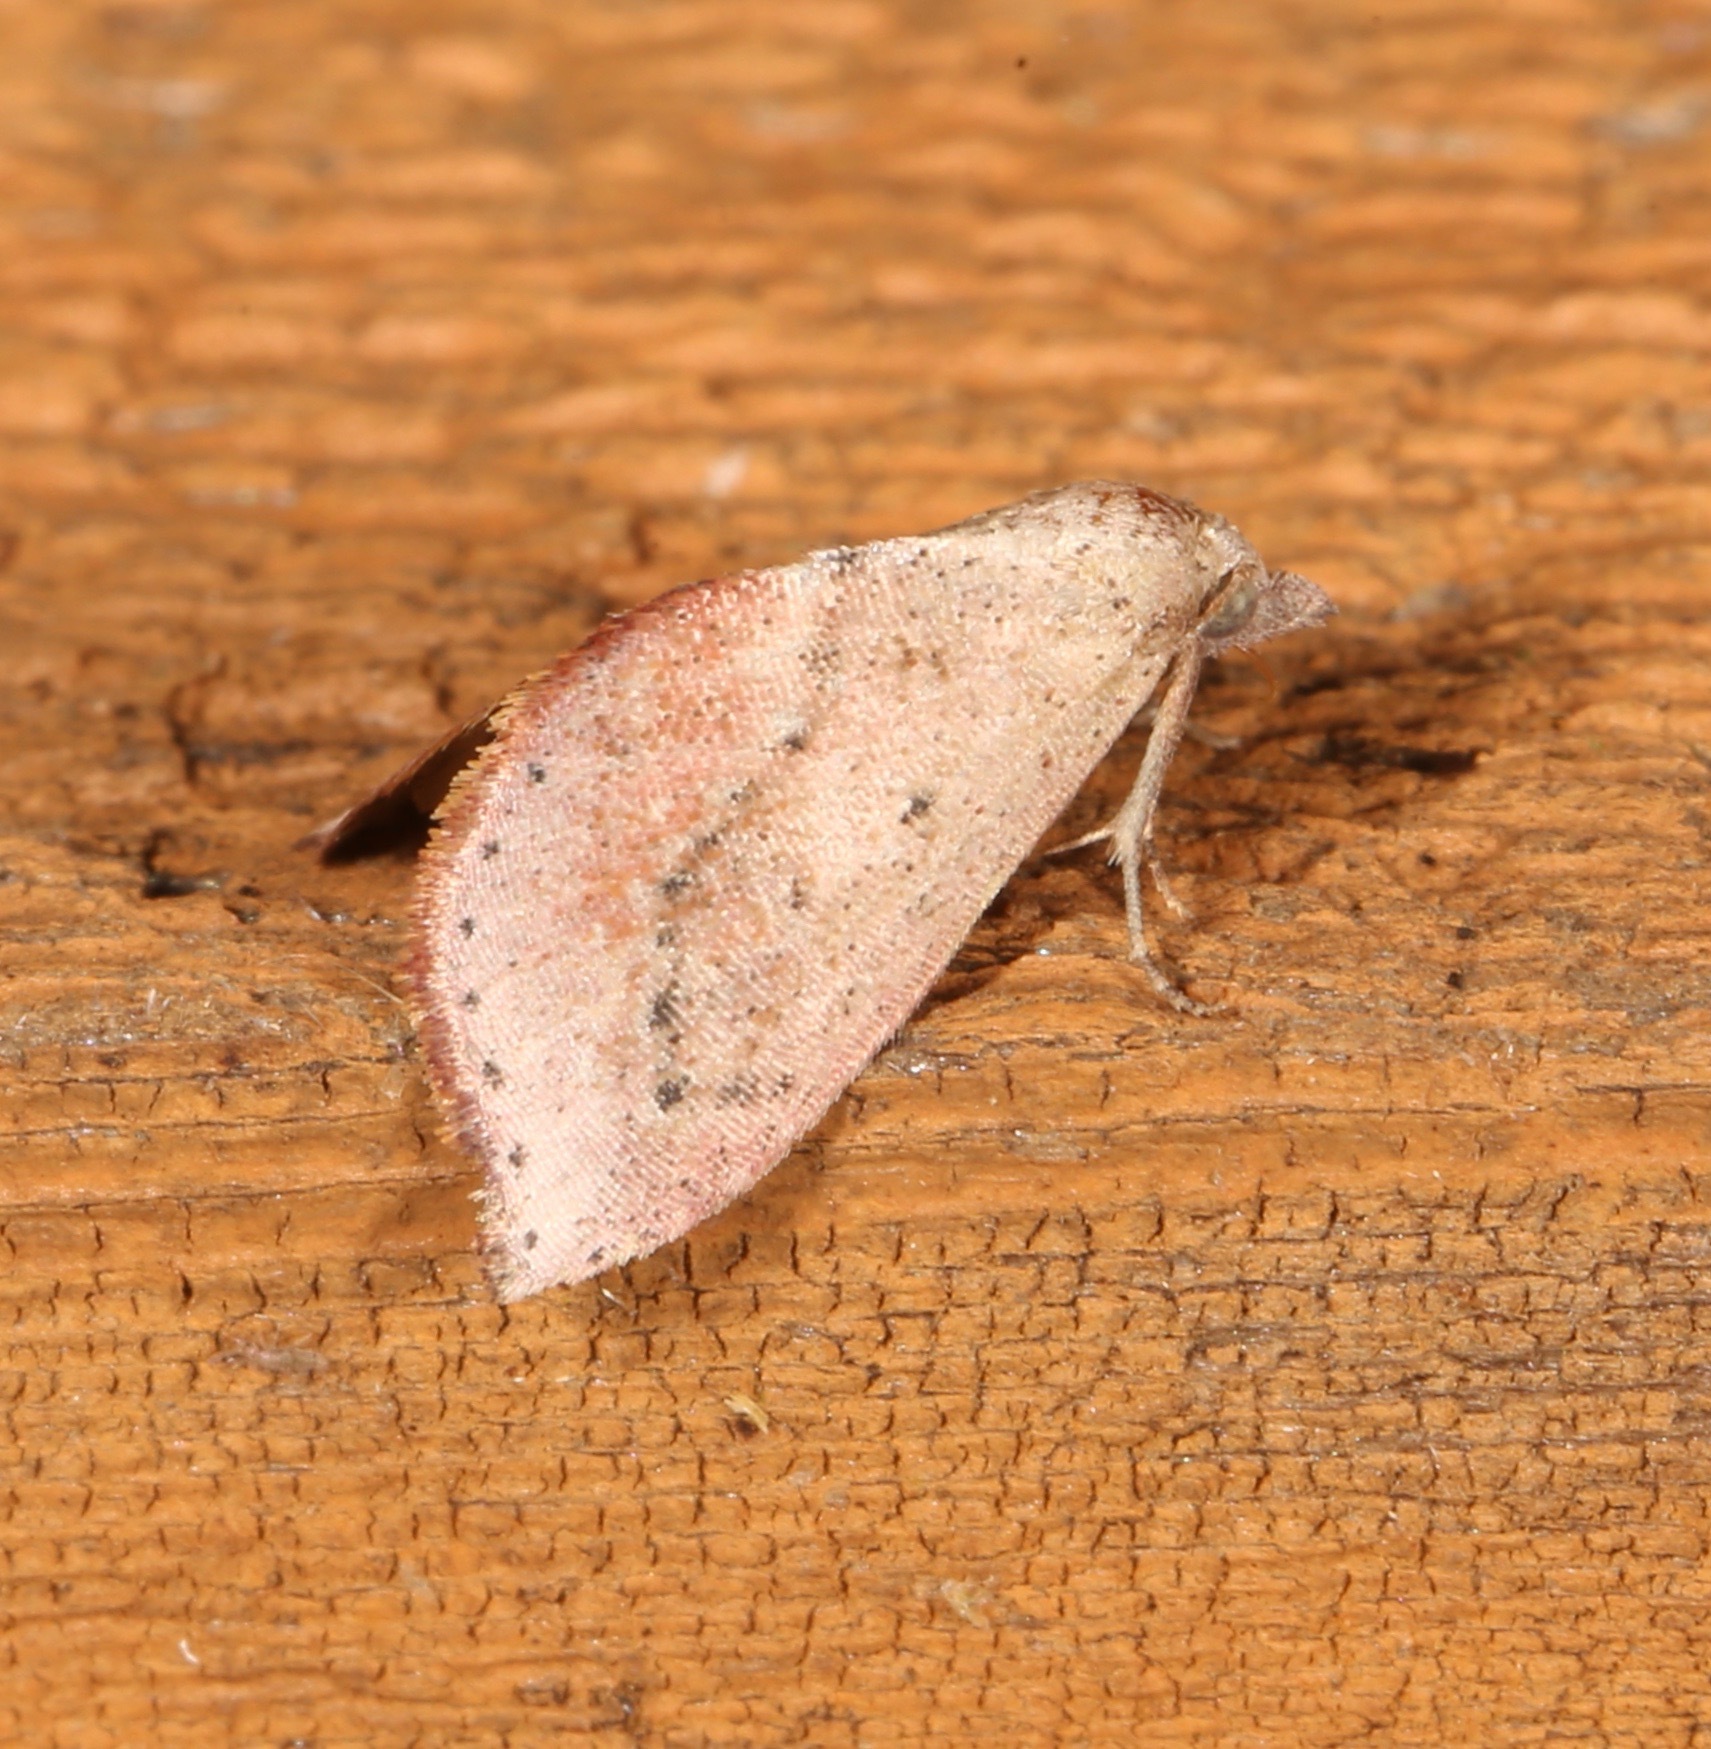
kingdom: Animalia
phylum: Arthropoda
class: Insecta
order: Lepidoptera
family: Noctuidae
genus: Proroblemma
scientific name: Proroblemma testa
